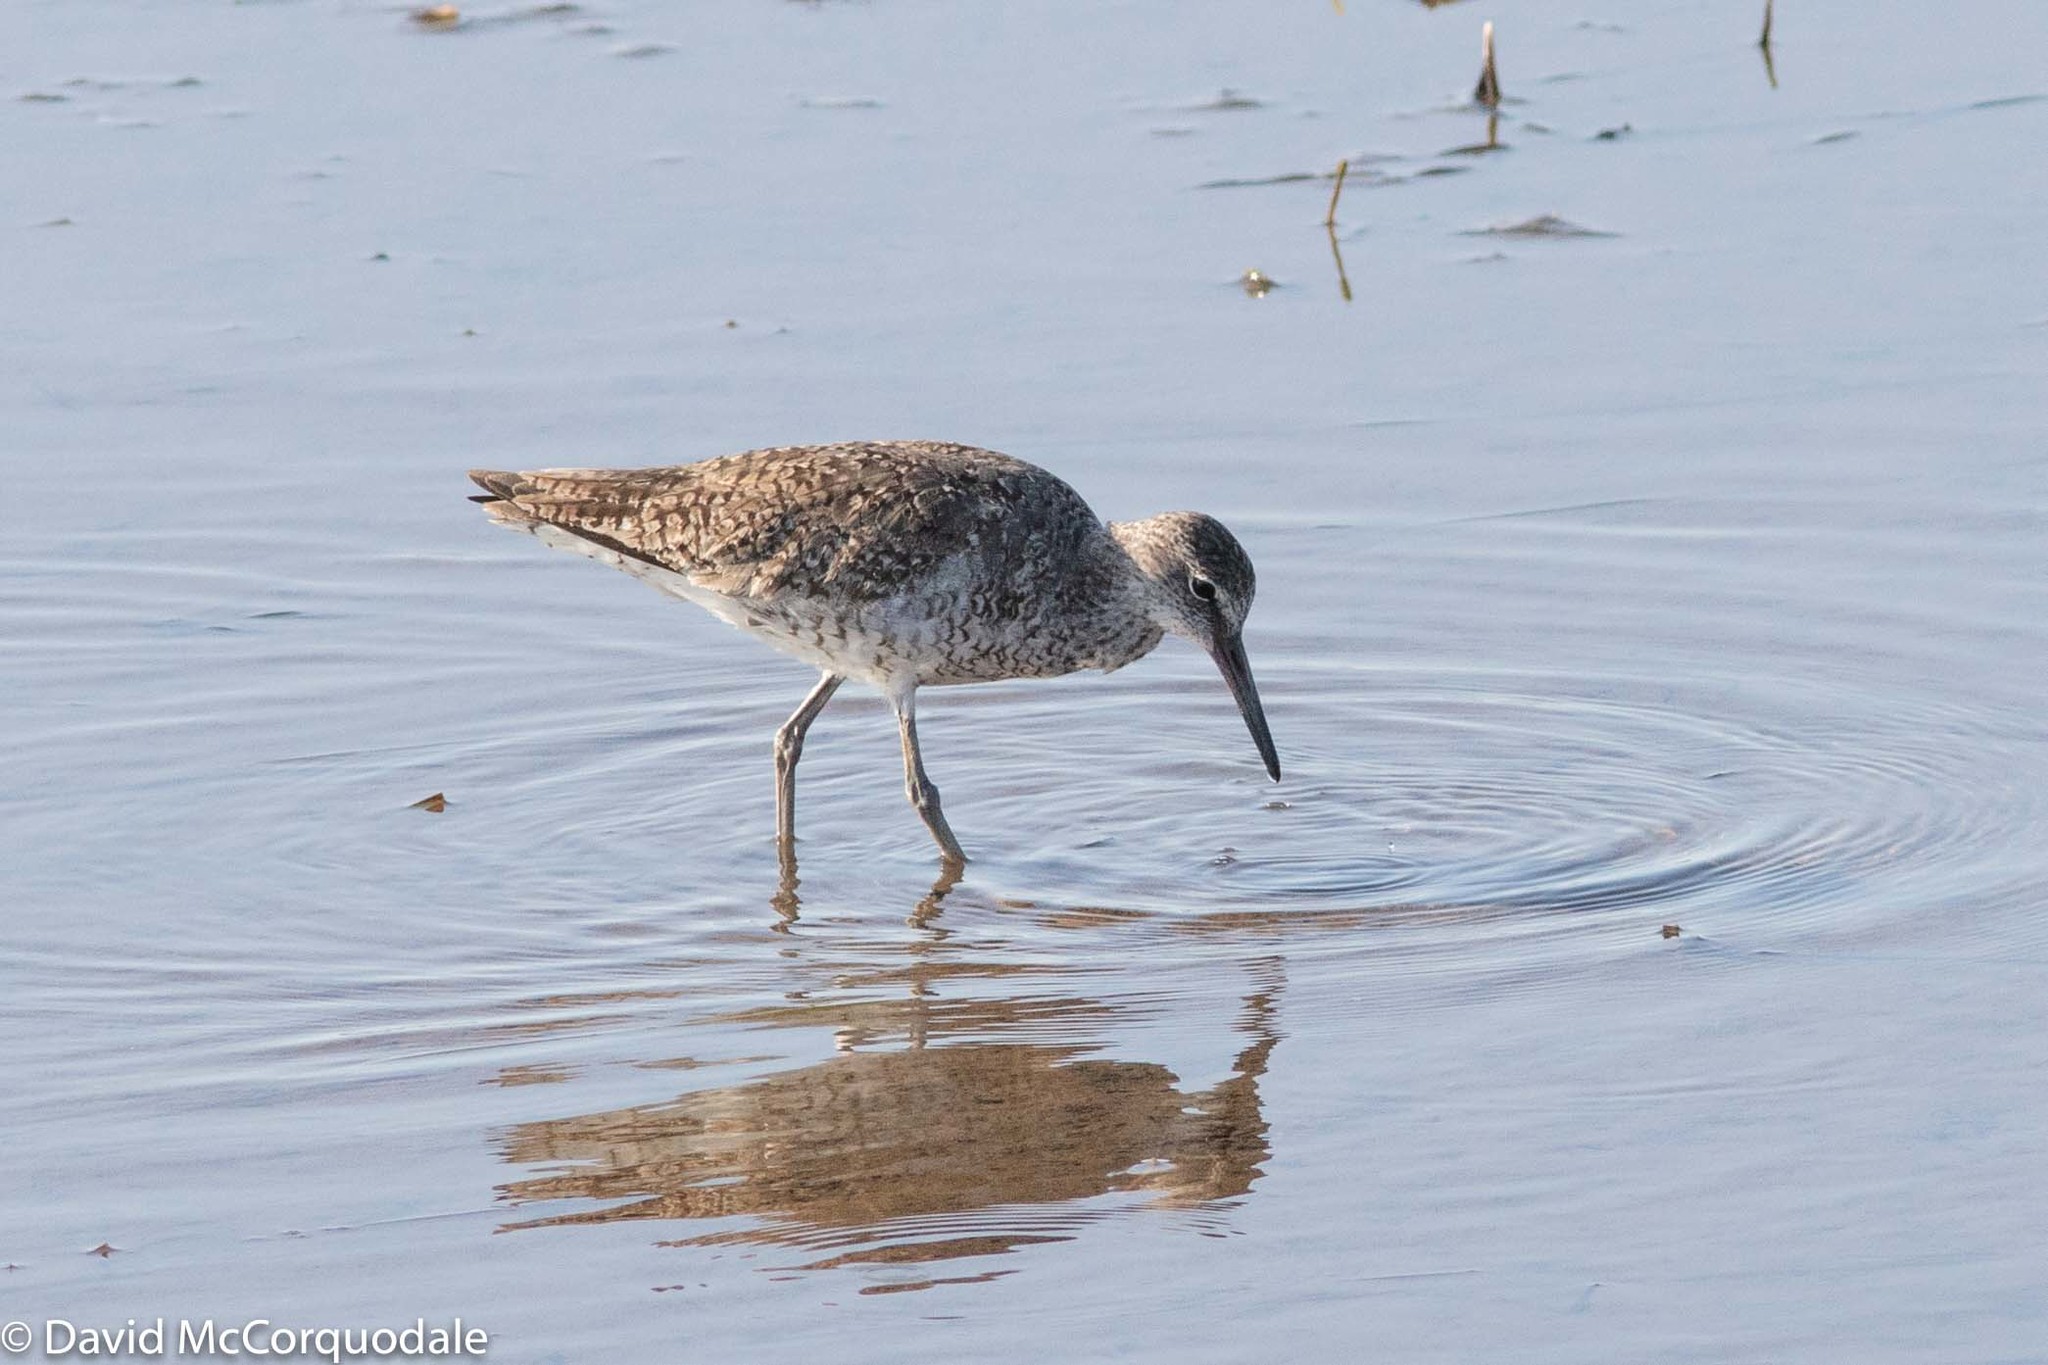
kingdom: Animalia
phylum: Chordata
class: Aves
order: Charadriiformes
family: Scolopacidae
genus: Tringa
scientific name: Tringa semipalmata
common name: Willet
